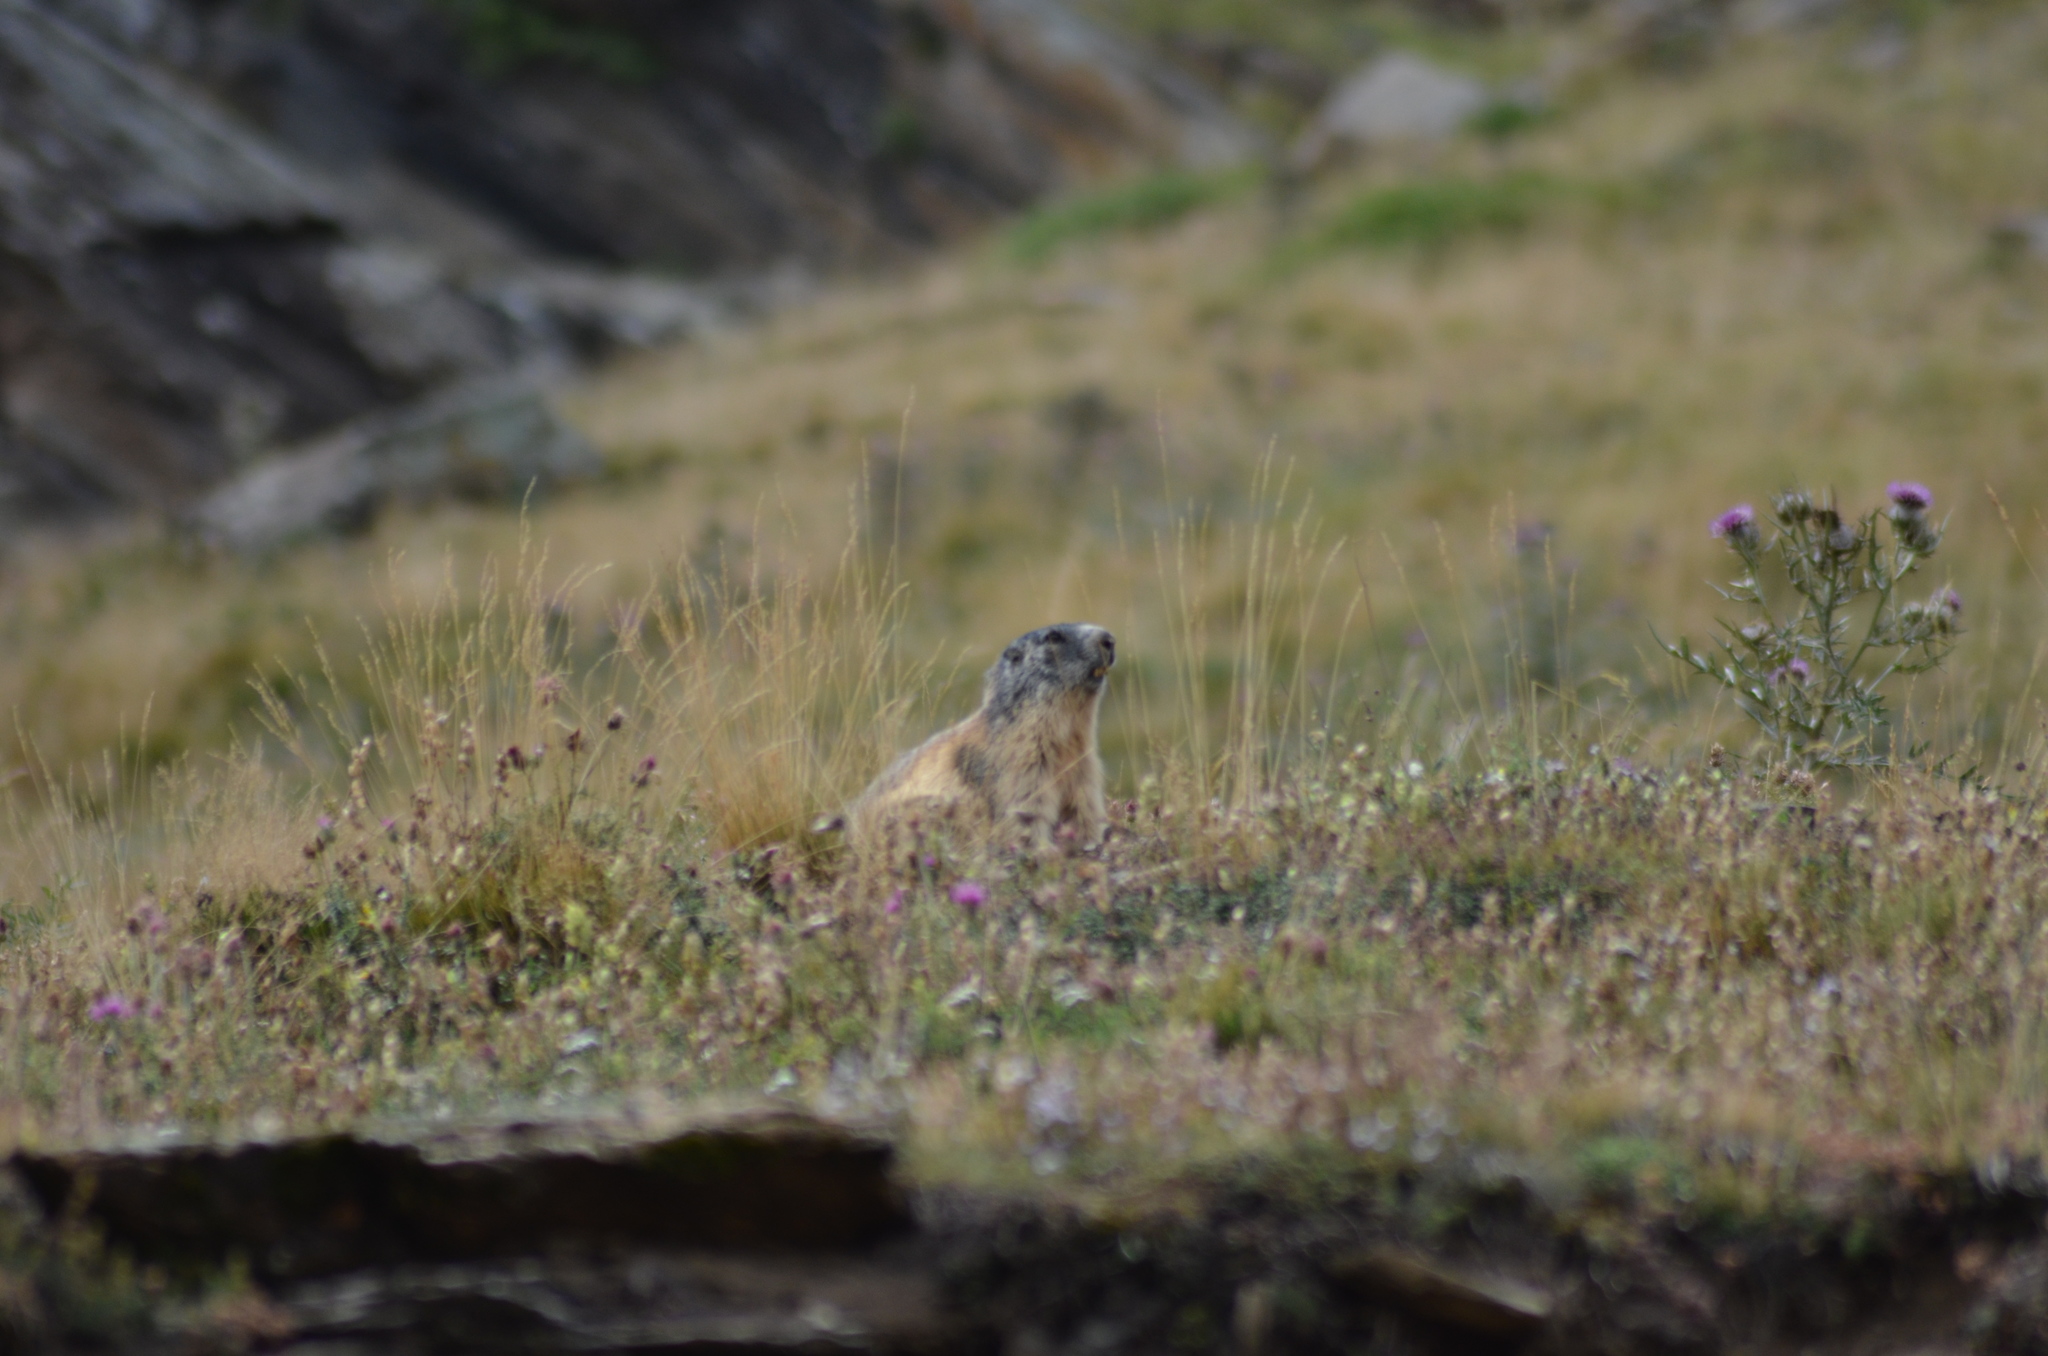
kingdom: Animalia
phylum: Chordata
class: Mammalia
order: Rodentia
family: Sciuridae
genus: Marmota
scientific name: Marmota marmota
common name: Alpine marmot
